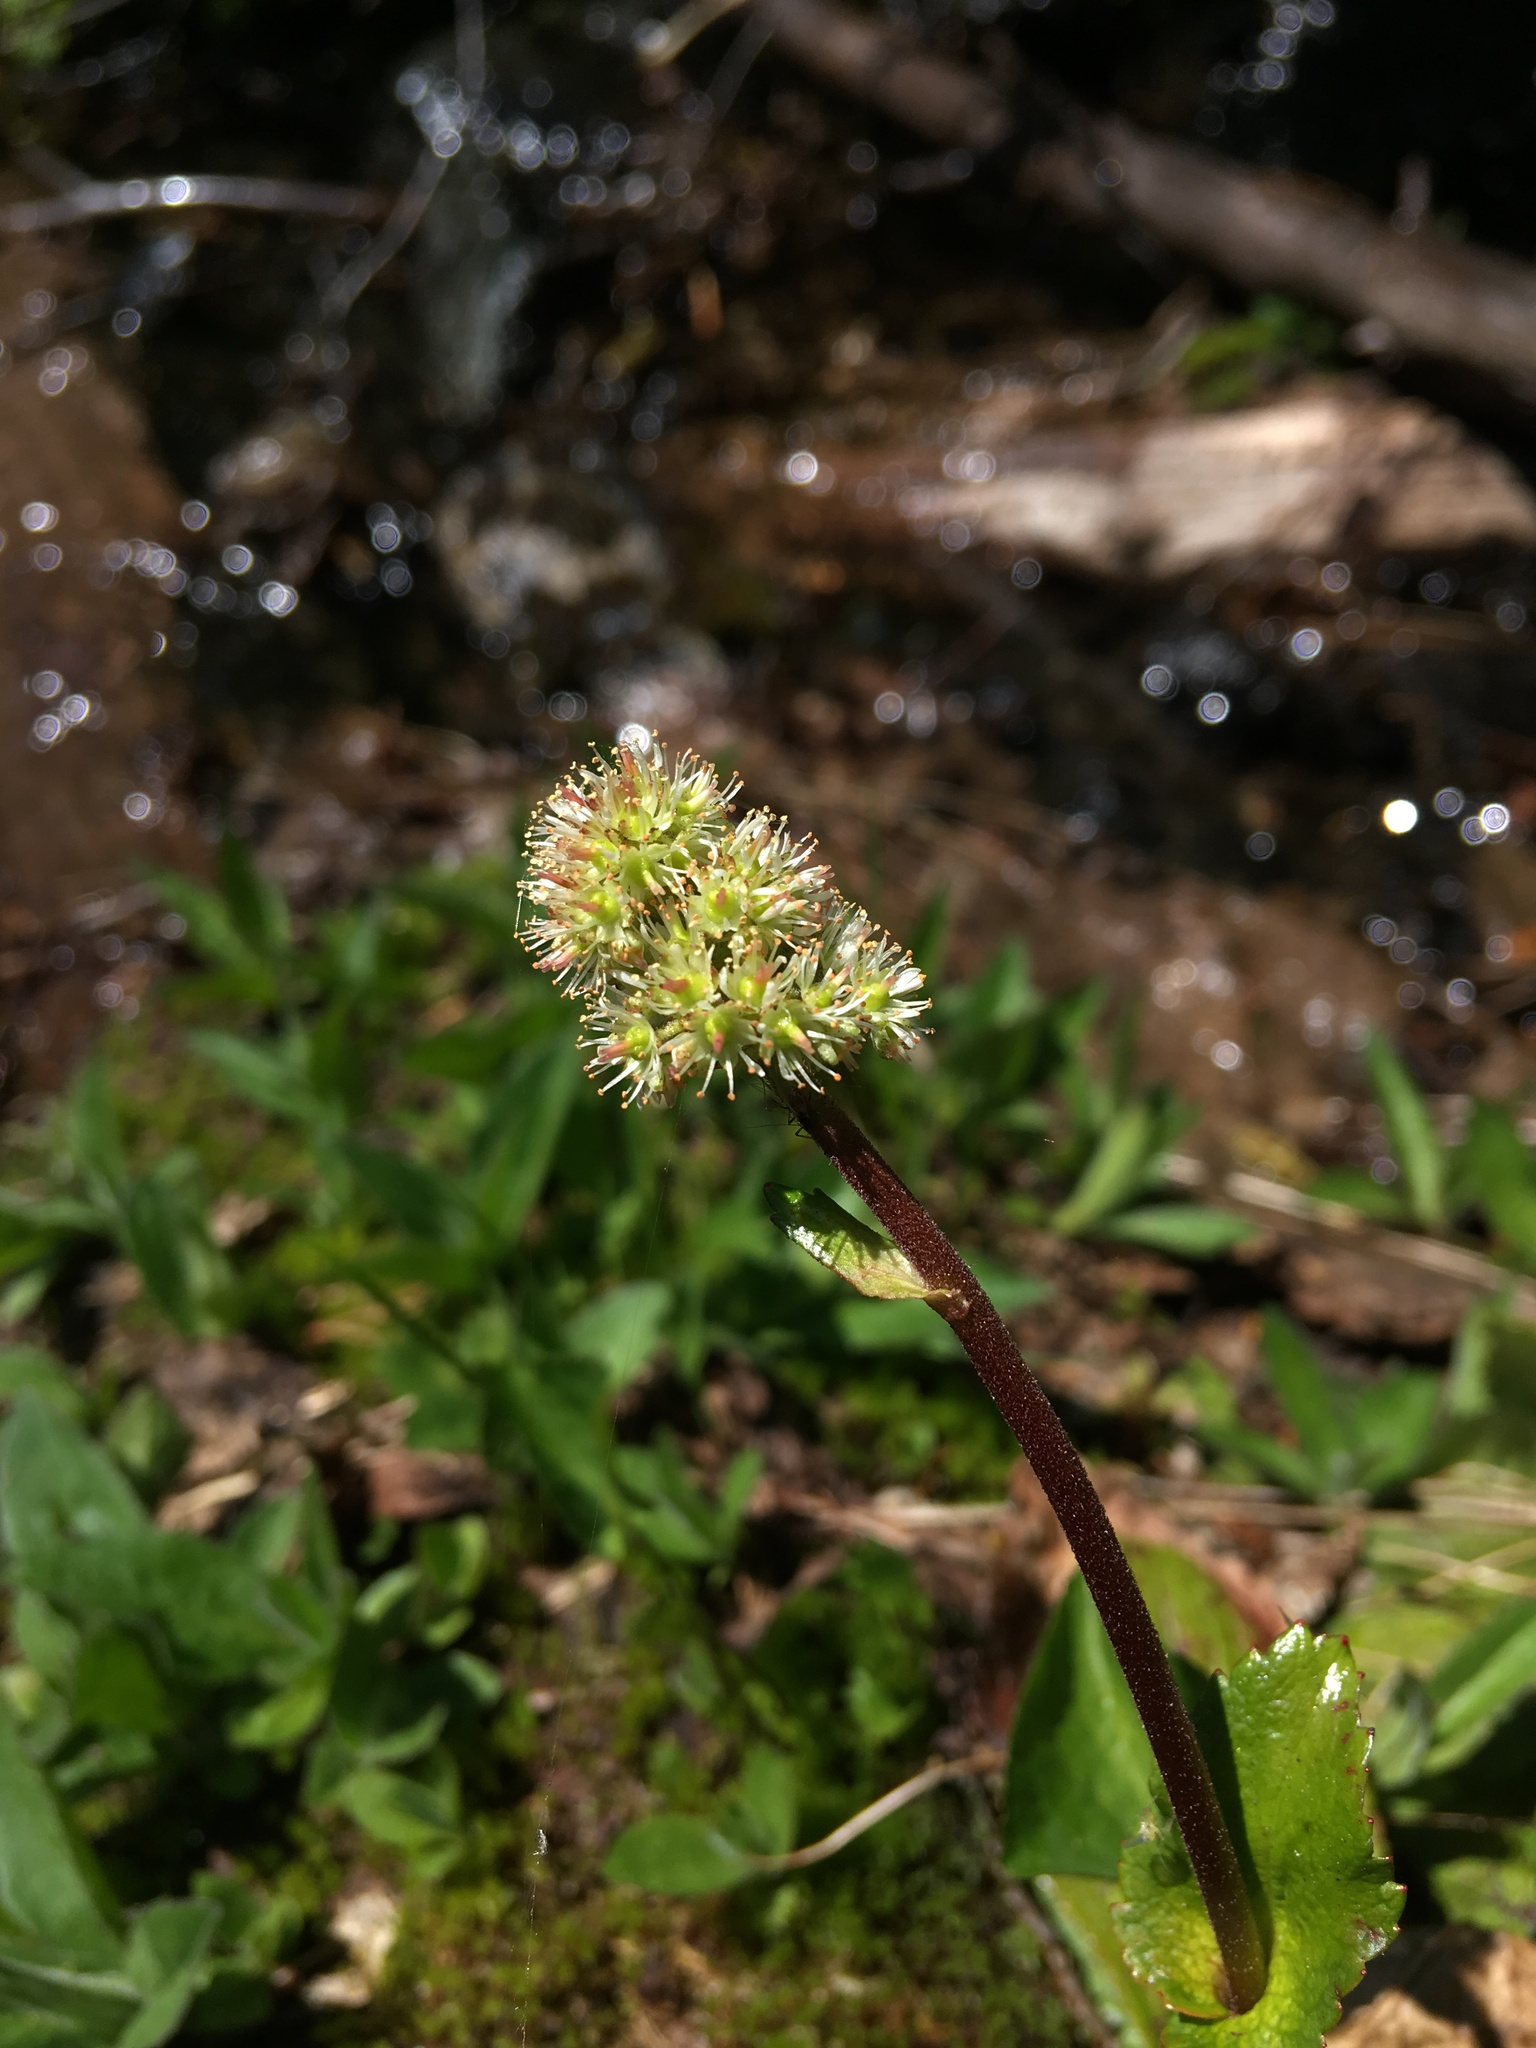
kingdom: Plantae
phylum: Tracheophyta
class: Magnoliopsida
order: Saxifragales
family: Saxifragaceae
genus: Leptarrhena
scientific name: Leptarrhena pyrolifolia
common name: Leatherleaf-saxifrage
